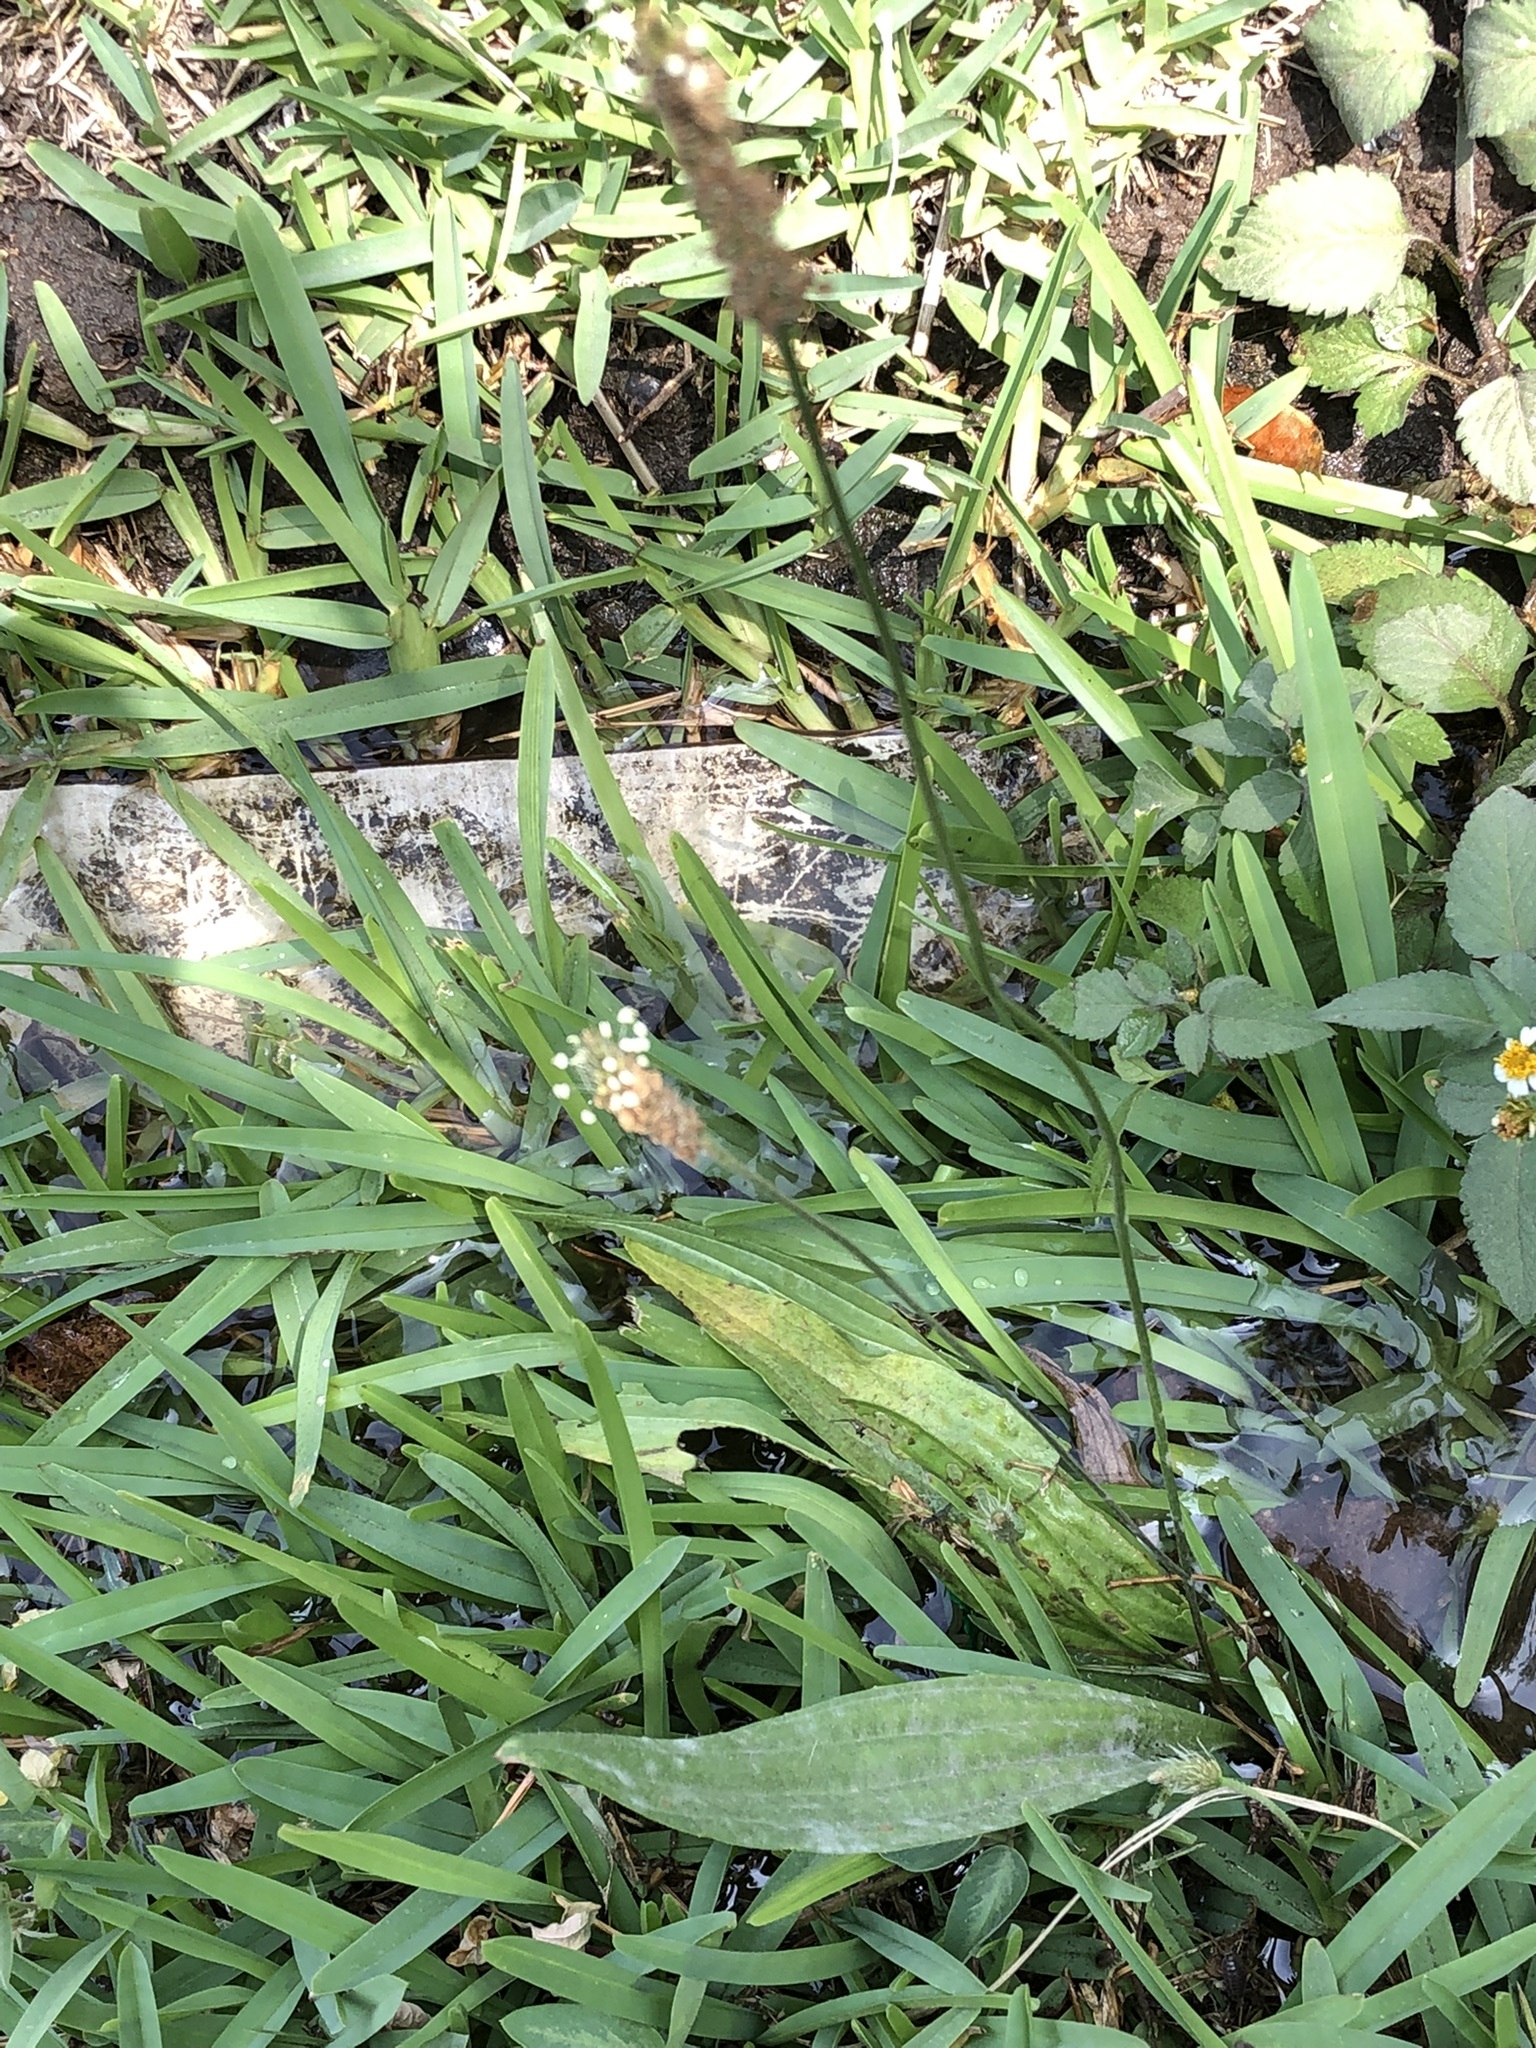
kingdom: Plantae
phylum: Tracheophyta
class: Magnoliopsida
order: Lamiales
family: Plantaginaceae
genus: Plantago
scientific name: Plantago lanceolata
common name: Ribwort plantain
